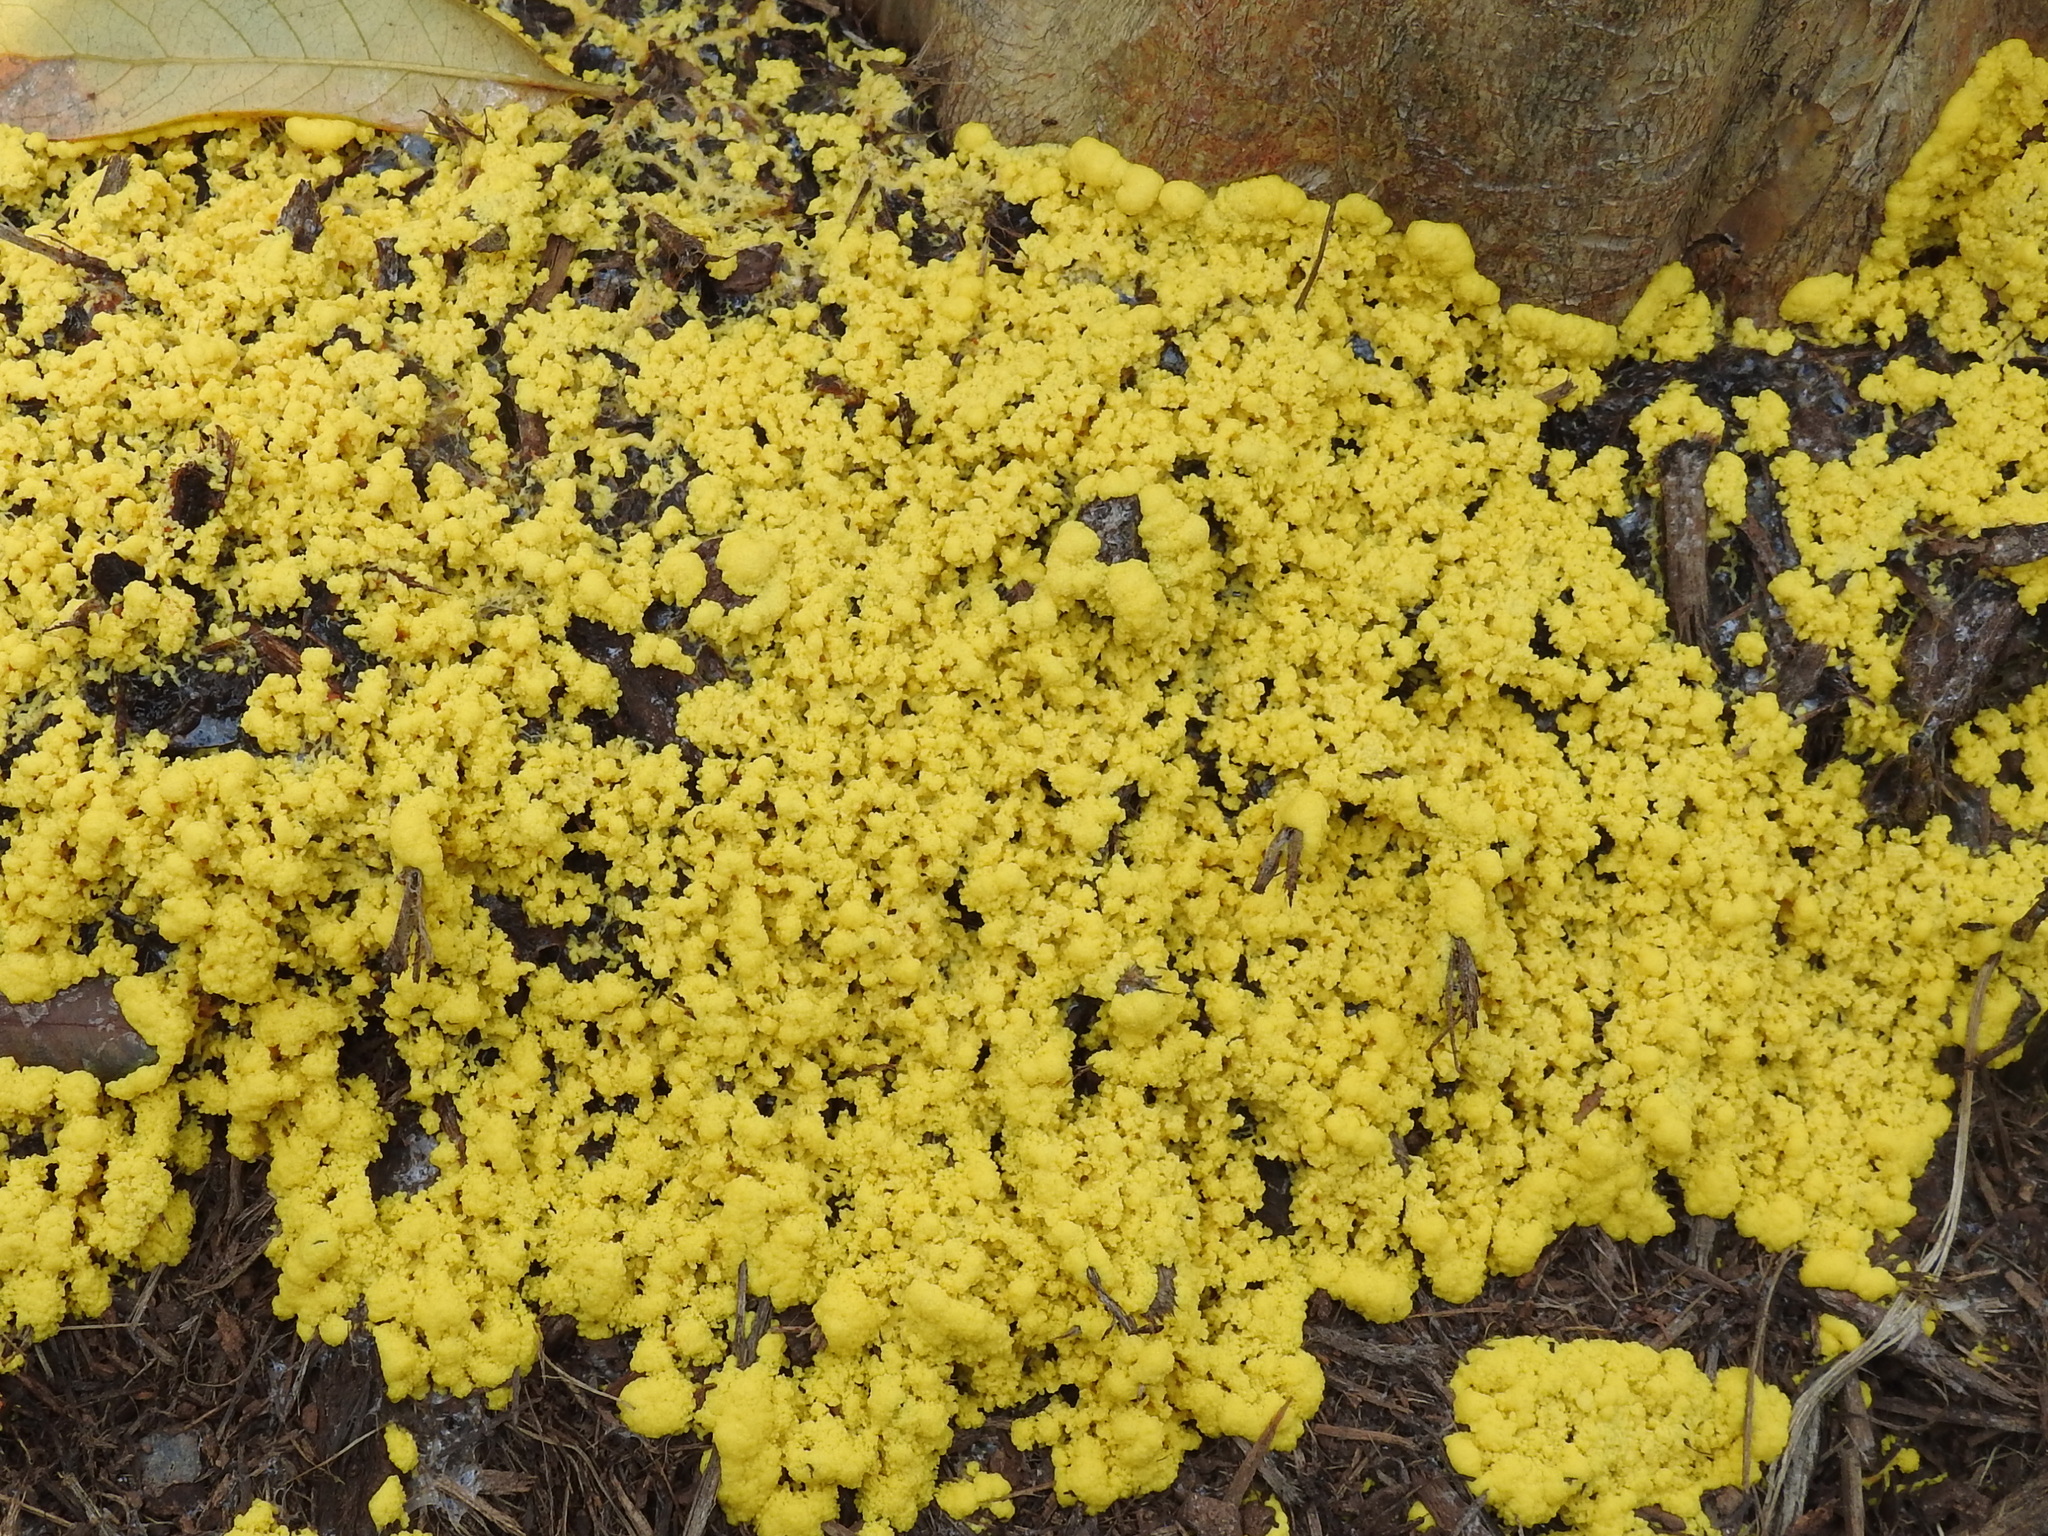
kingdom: Protozoa
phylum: Mycetozoa
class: Myxomycetes
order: Physarales
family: Physaraceae
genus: Fuligo
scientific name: Fuligo septica
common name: Dog vomit slime mold
